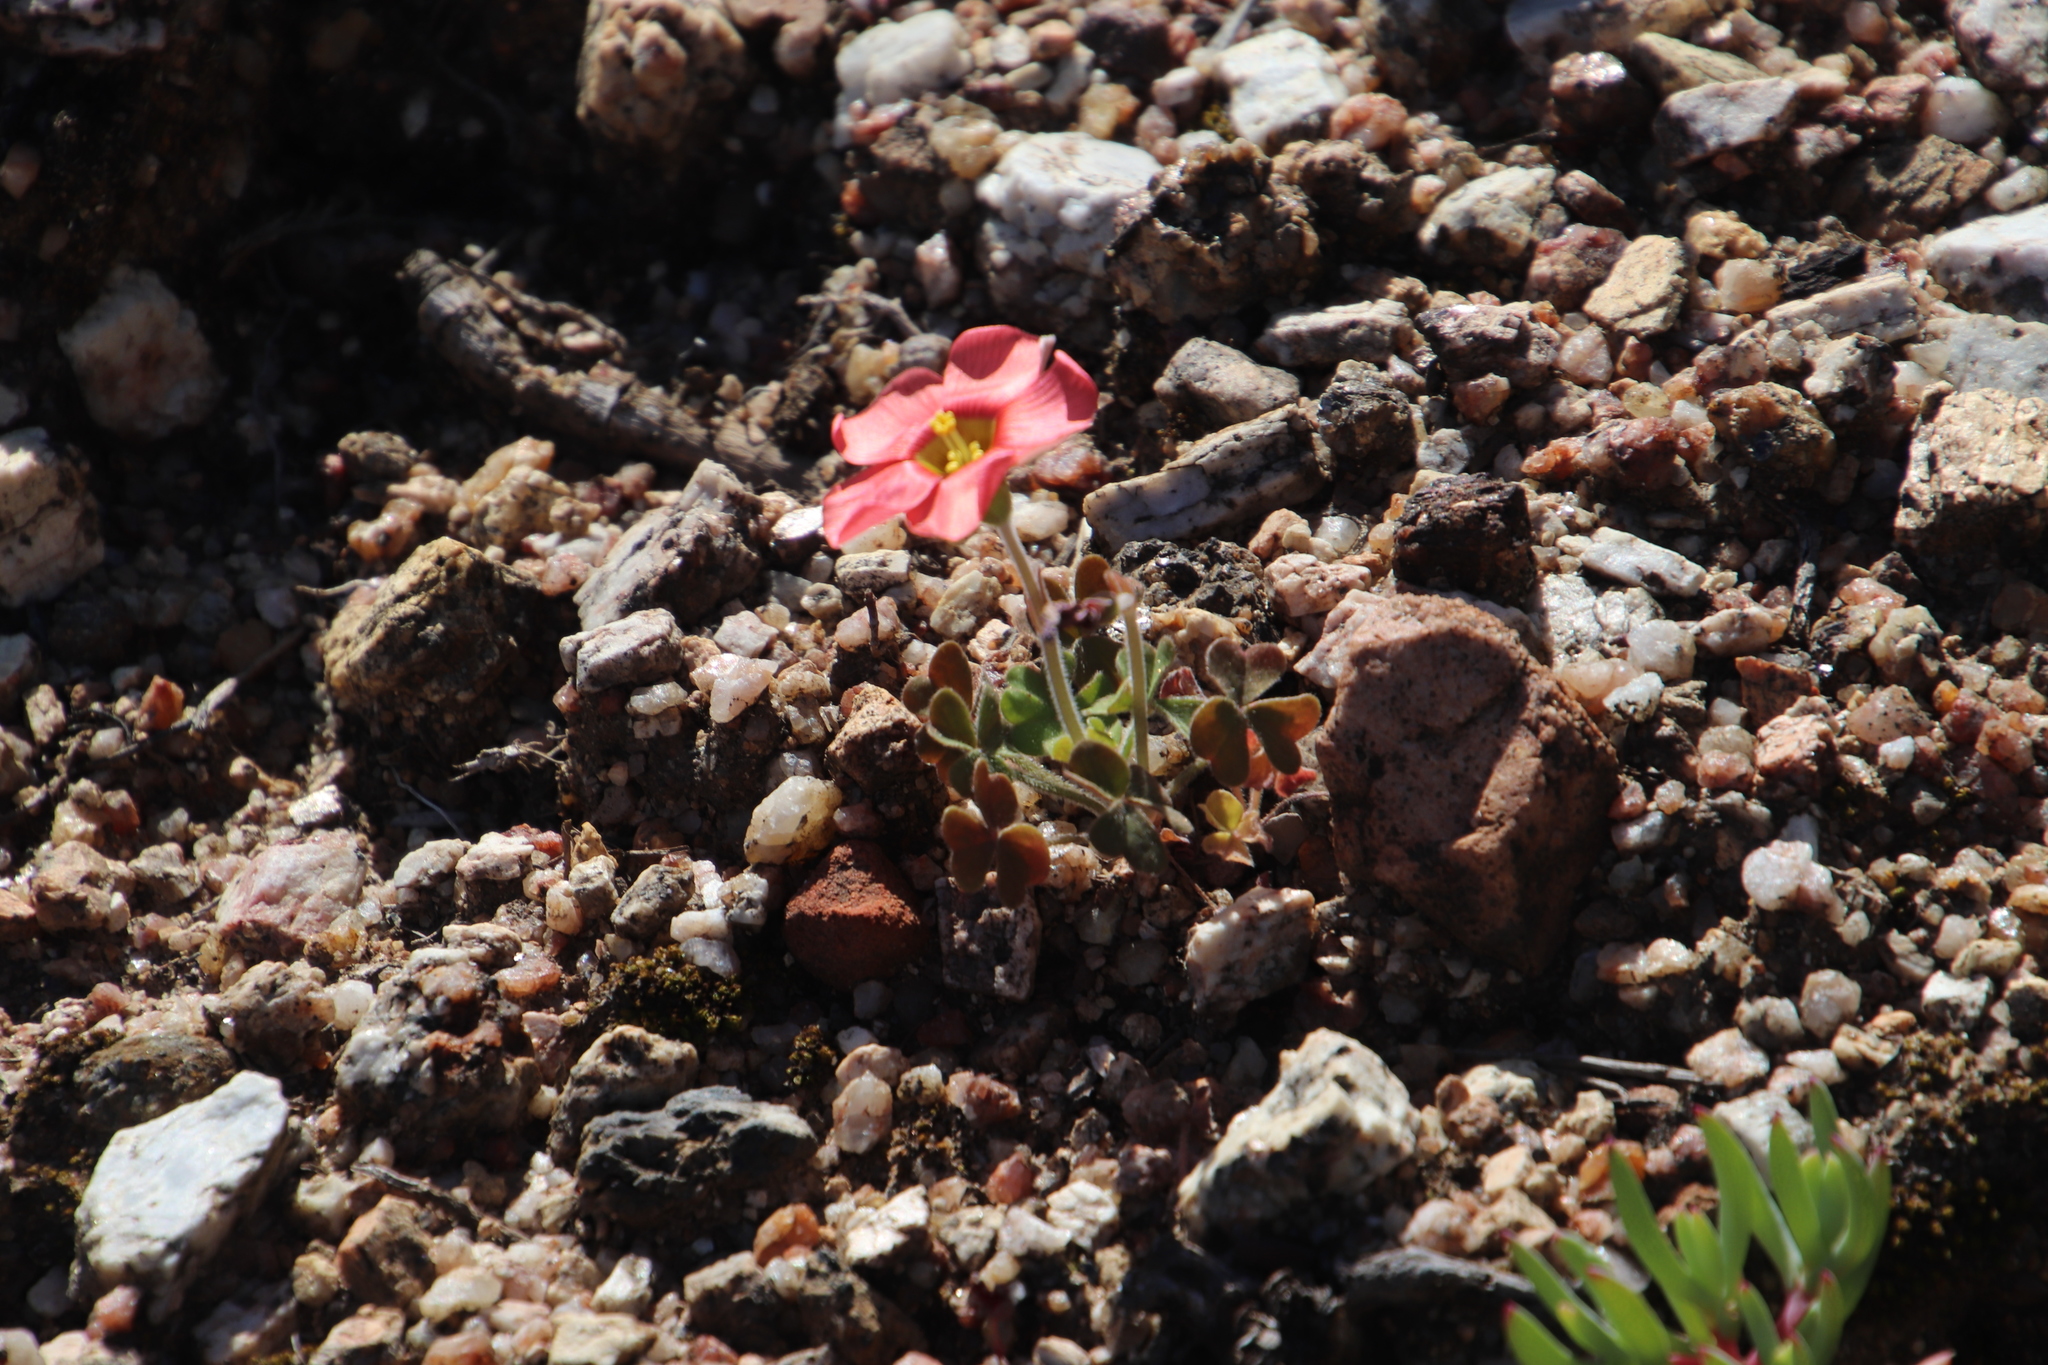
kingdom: Plantae
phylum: Tracheophyta
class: Magnoliopsida
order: Oxalidales
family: Oxalidaceae
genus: Oxalis
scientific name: Oxalis obtusa
